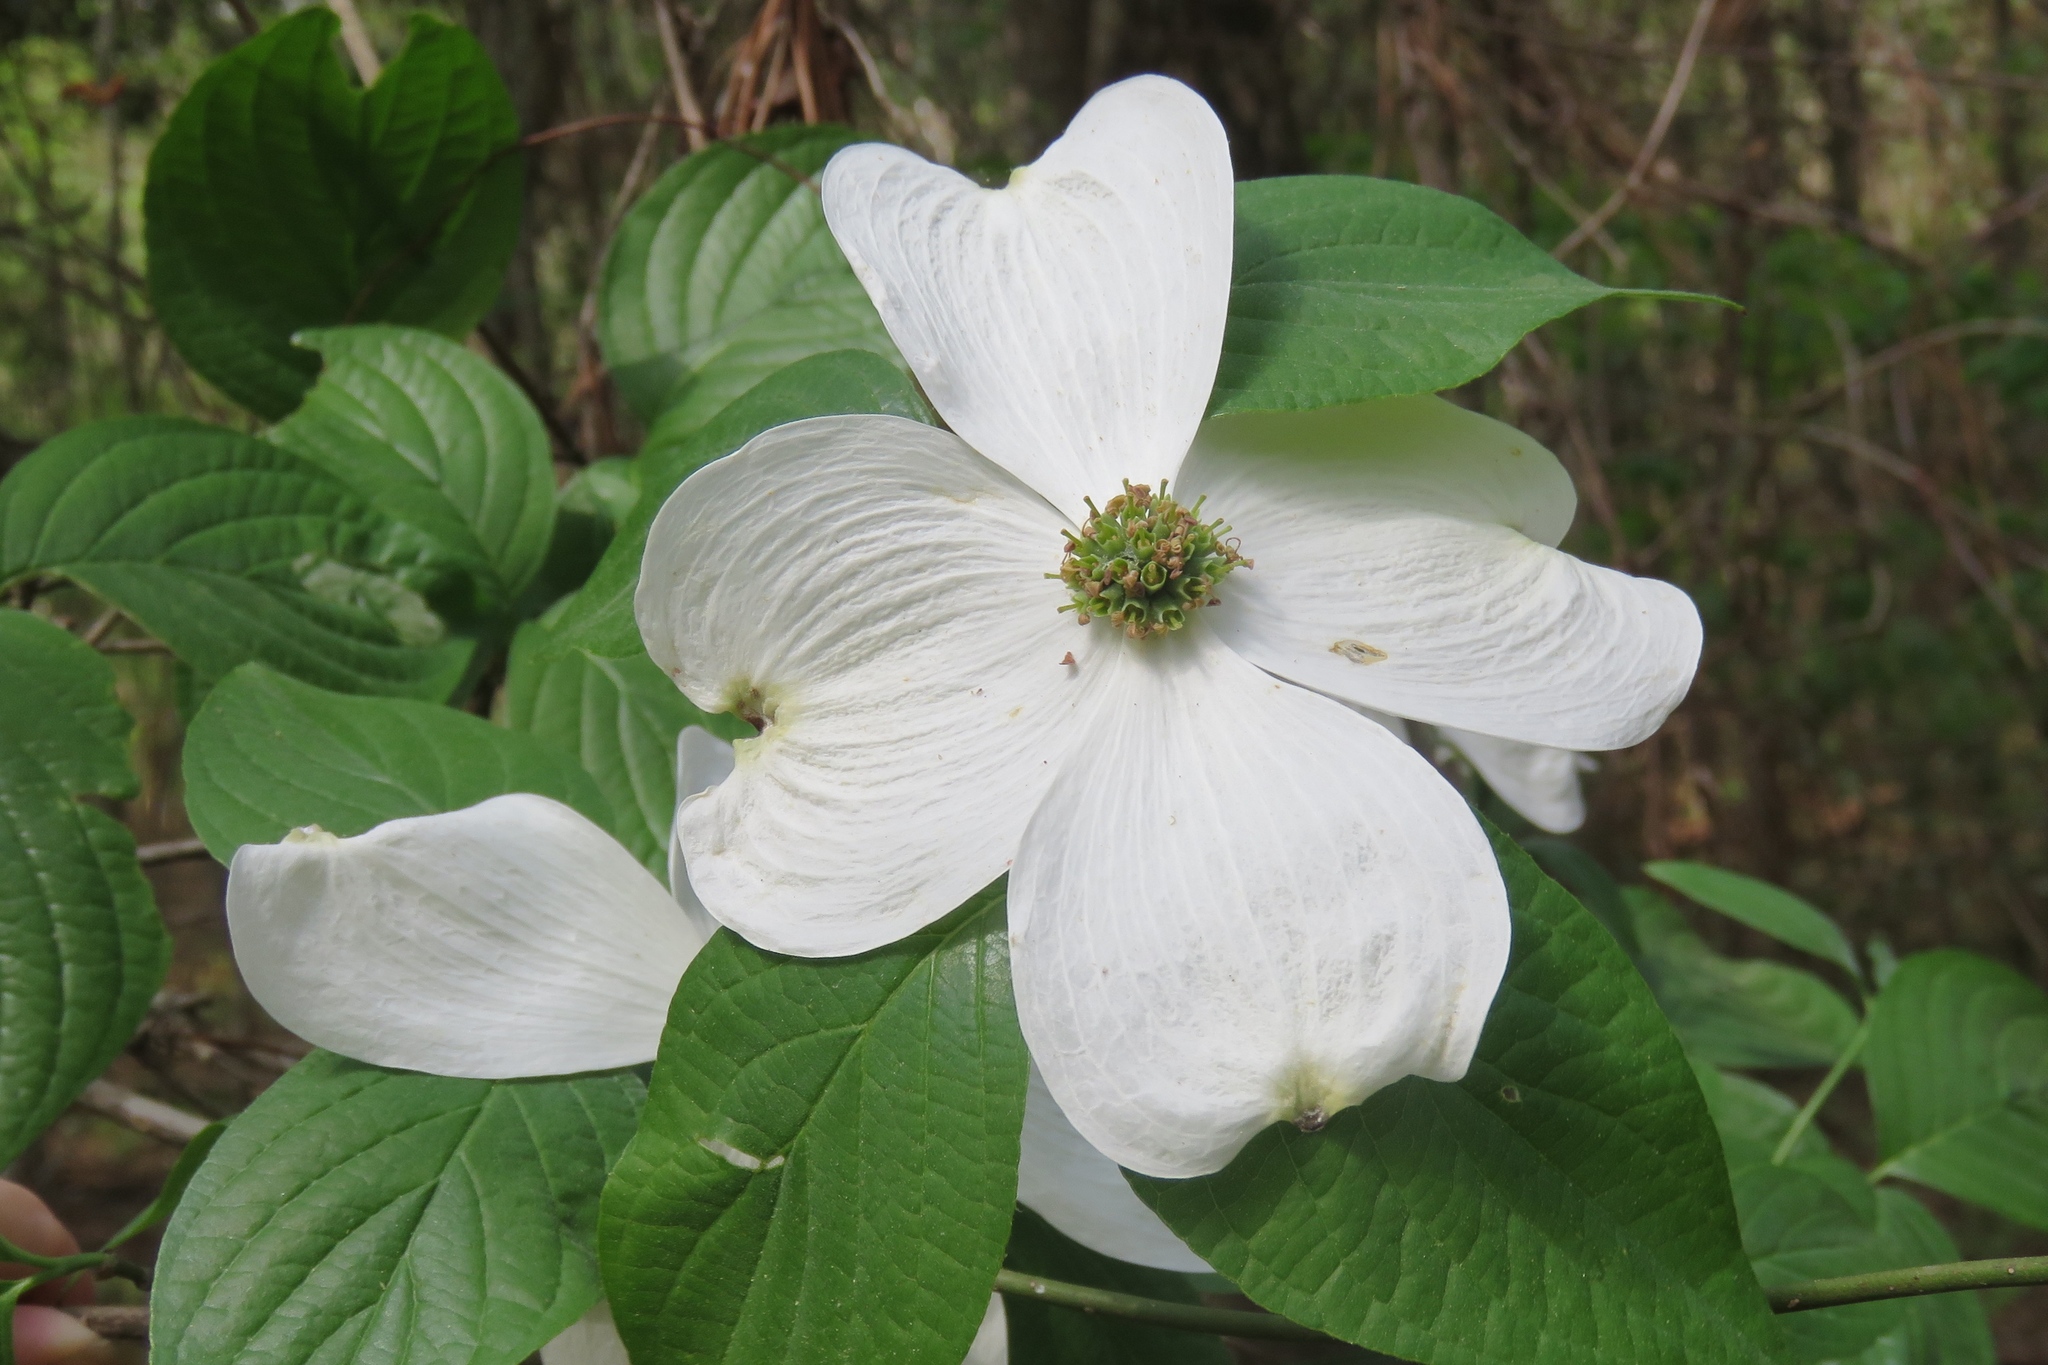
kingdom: Plantae
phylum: Tracheophyta
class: Magnoliopsida
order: Cornales
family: Cornaceae
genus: Cornus
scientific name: Cornus florida
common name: Flowering dogwood
